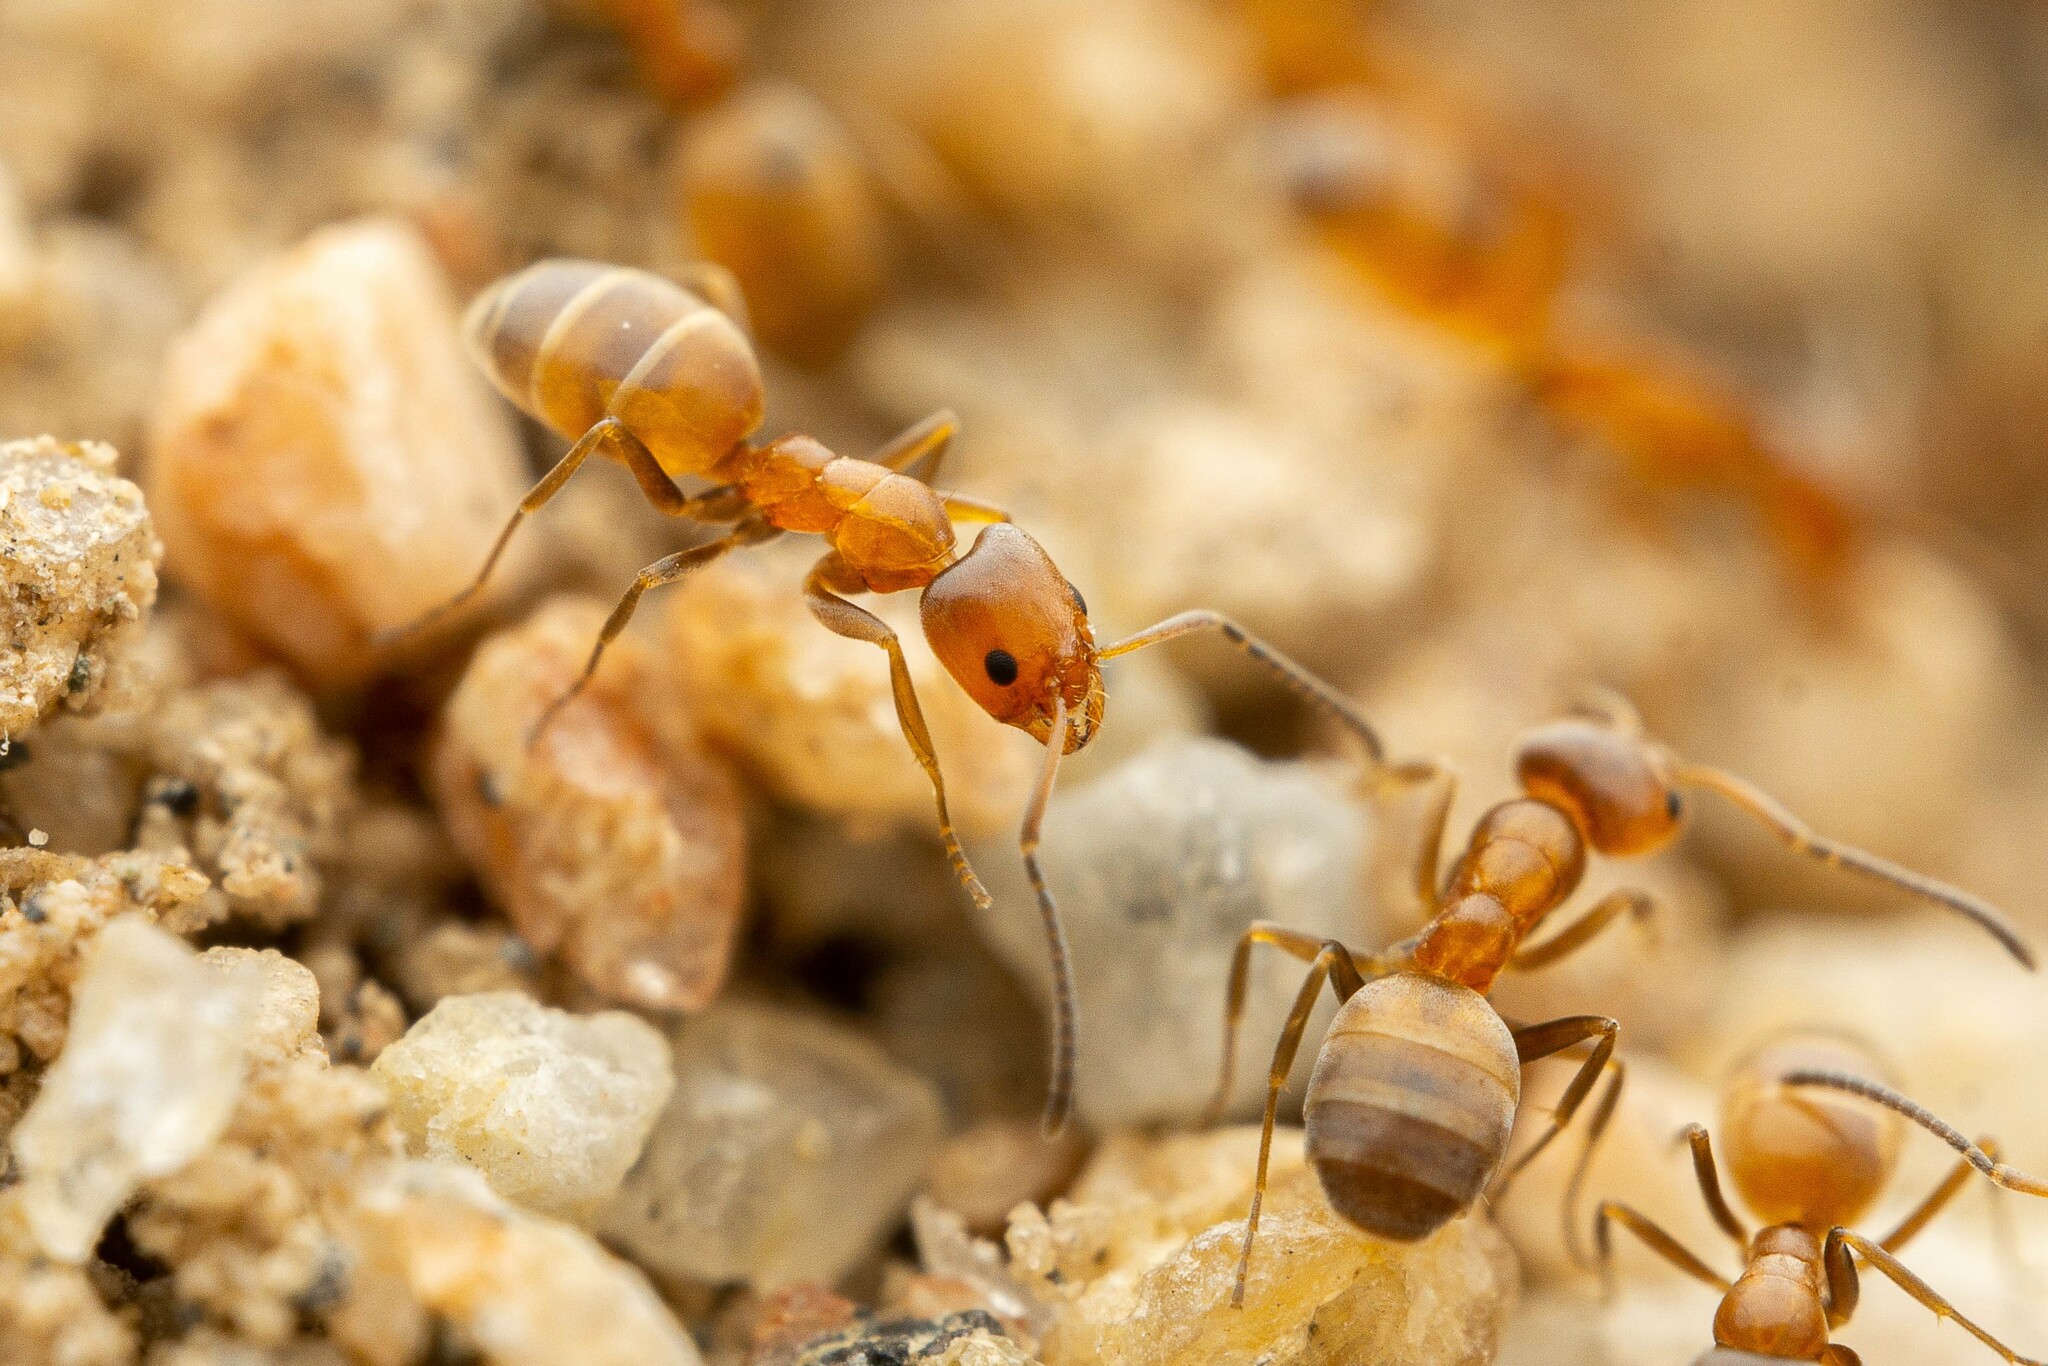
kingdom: Animalia
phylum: Arthropoda
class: Insecta
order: Hymenoptera
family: Formicidae
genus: Forelius
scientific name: Forelius pruinosus
